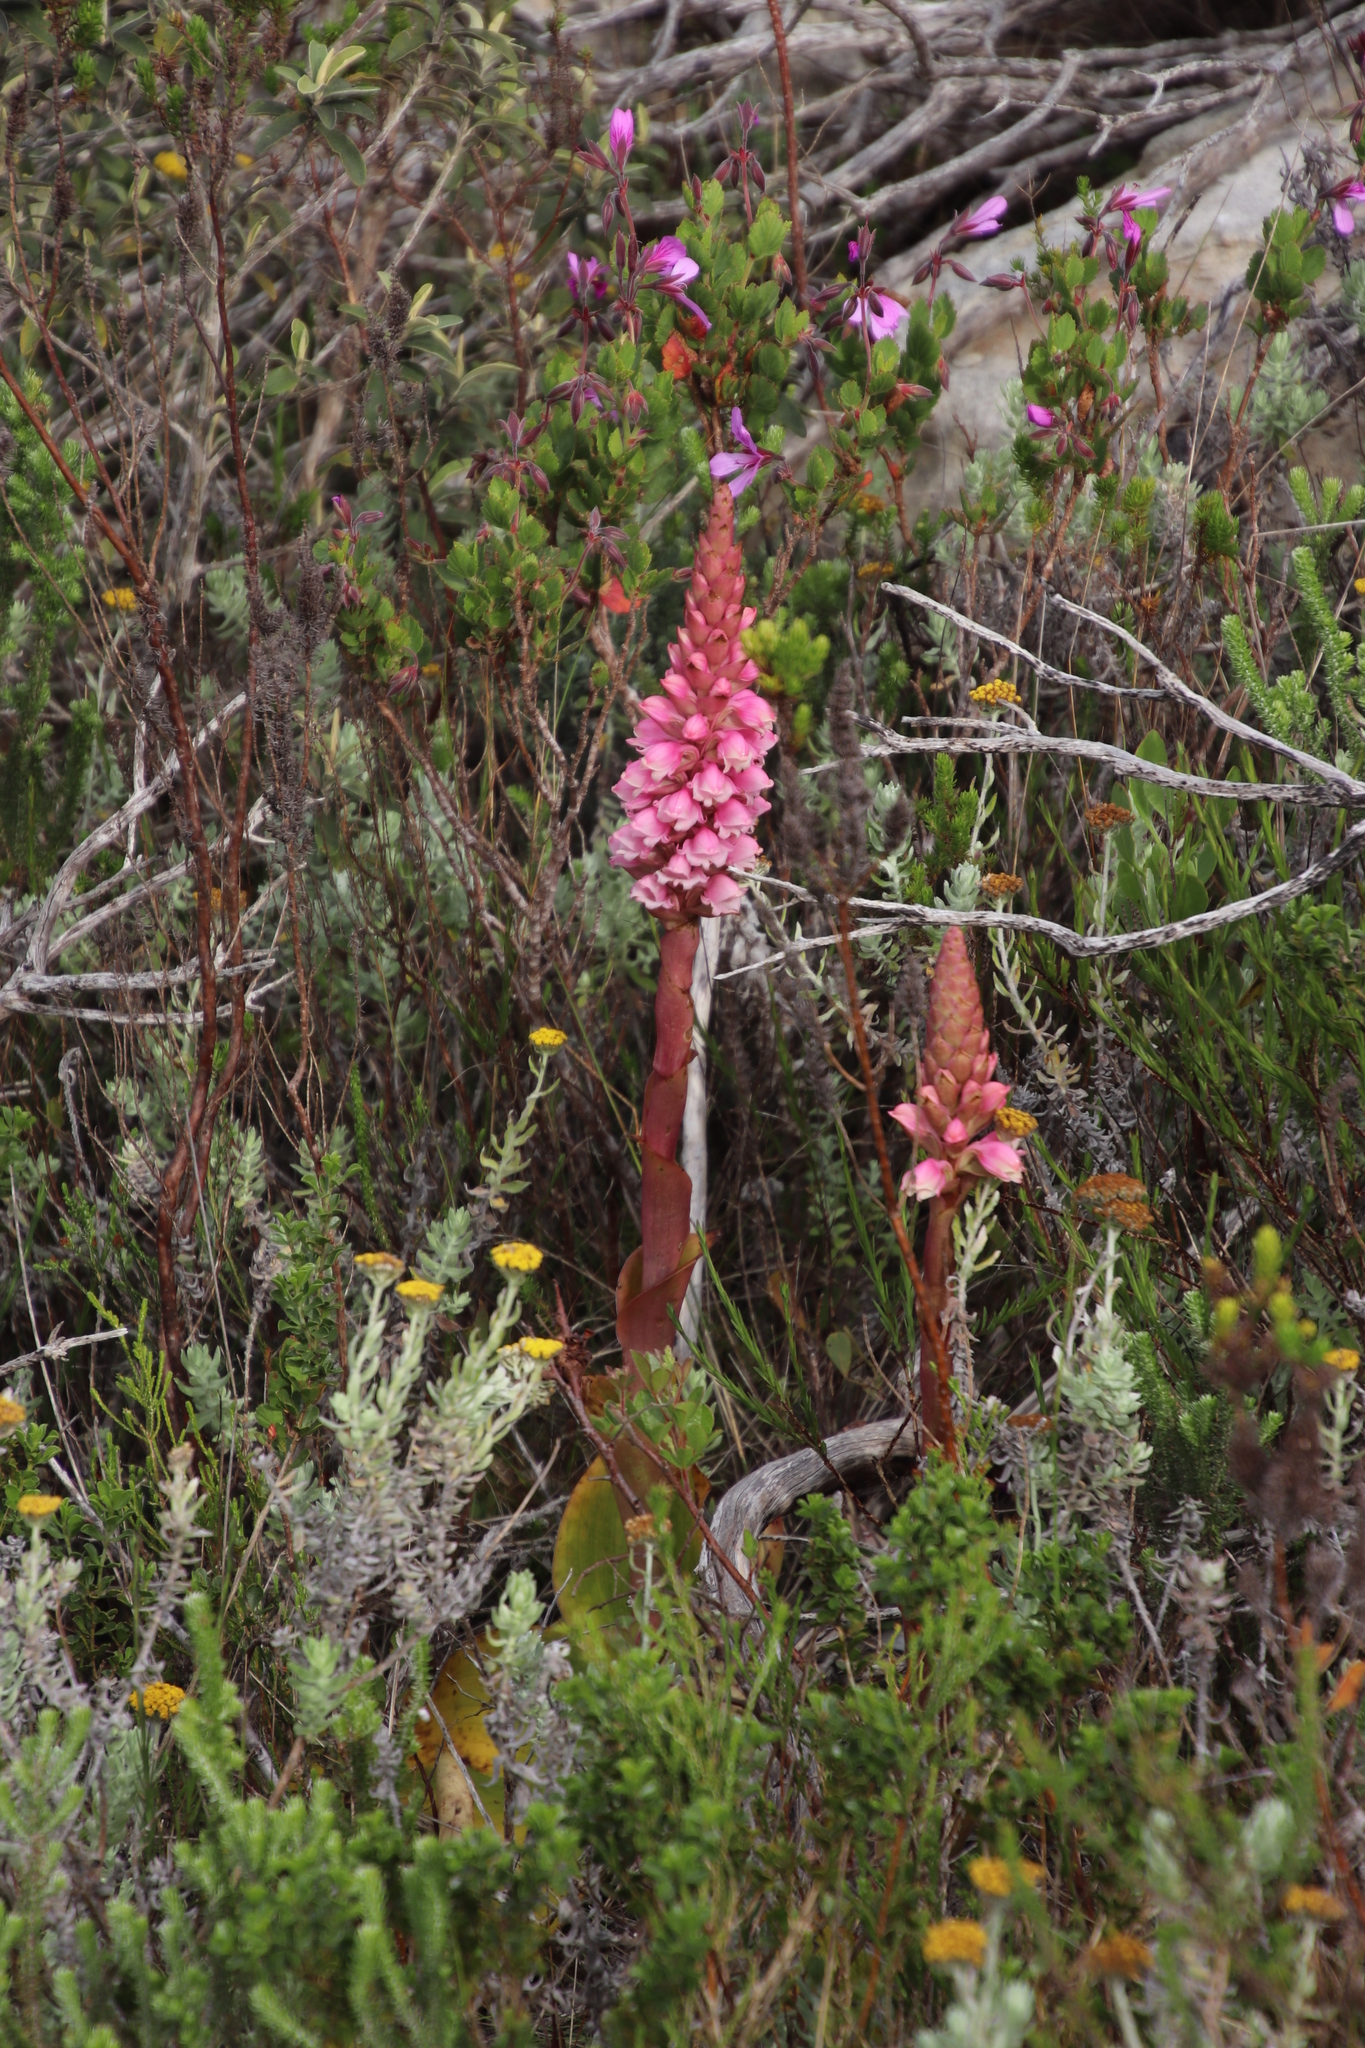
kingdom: Plantae
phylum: Tracheophyta
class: Liliopsida
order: Asparagales
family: Orchidaceae
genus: Satyrium
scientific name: Satyrium carneum
